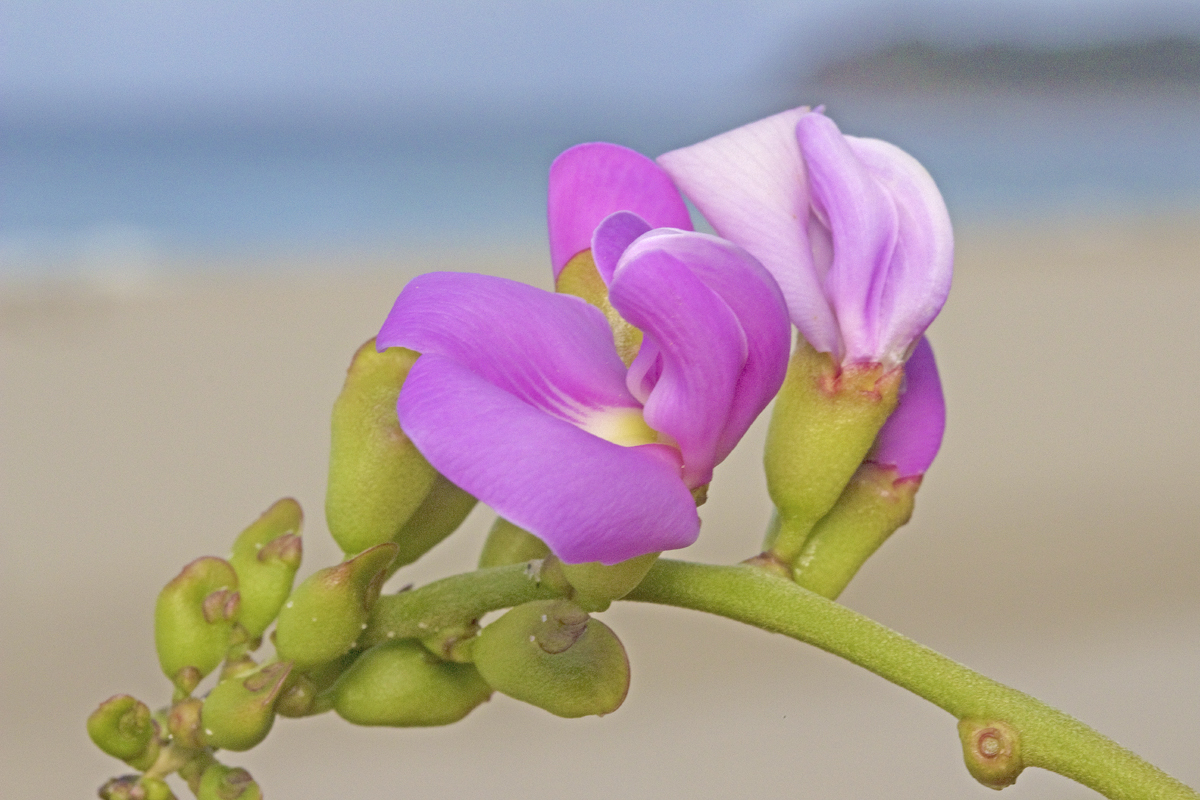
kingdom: Plantae
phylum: Tracheophyta
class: Magnoliopsida
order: Fabales
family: Fabaceae
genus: Canavalia
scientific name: Canavalia rosea
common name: Beach-bean
